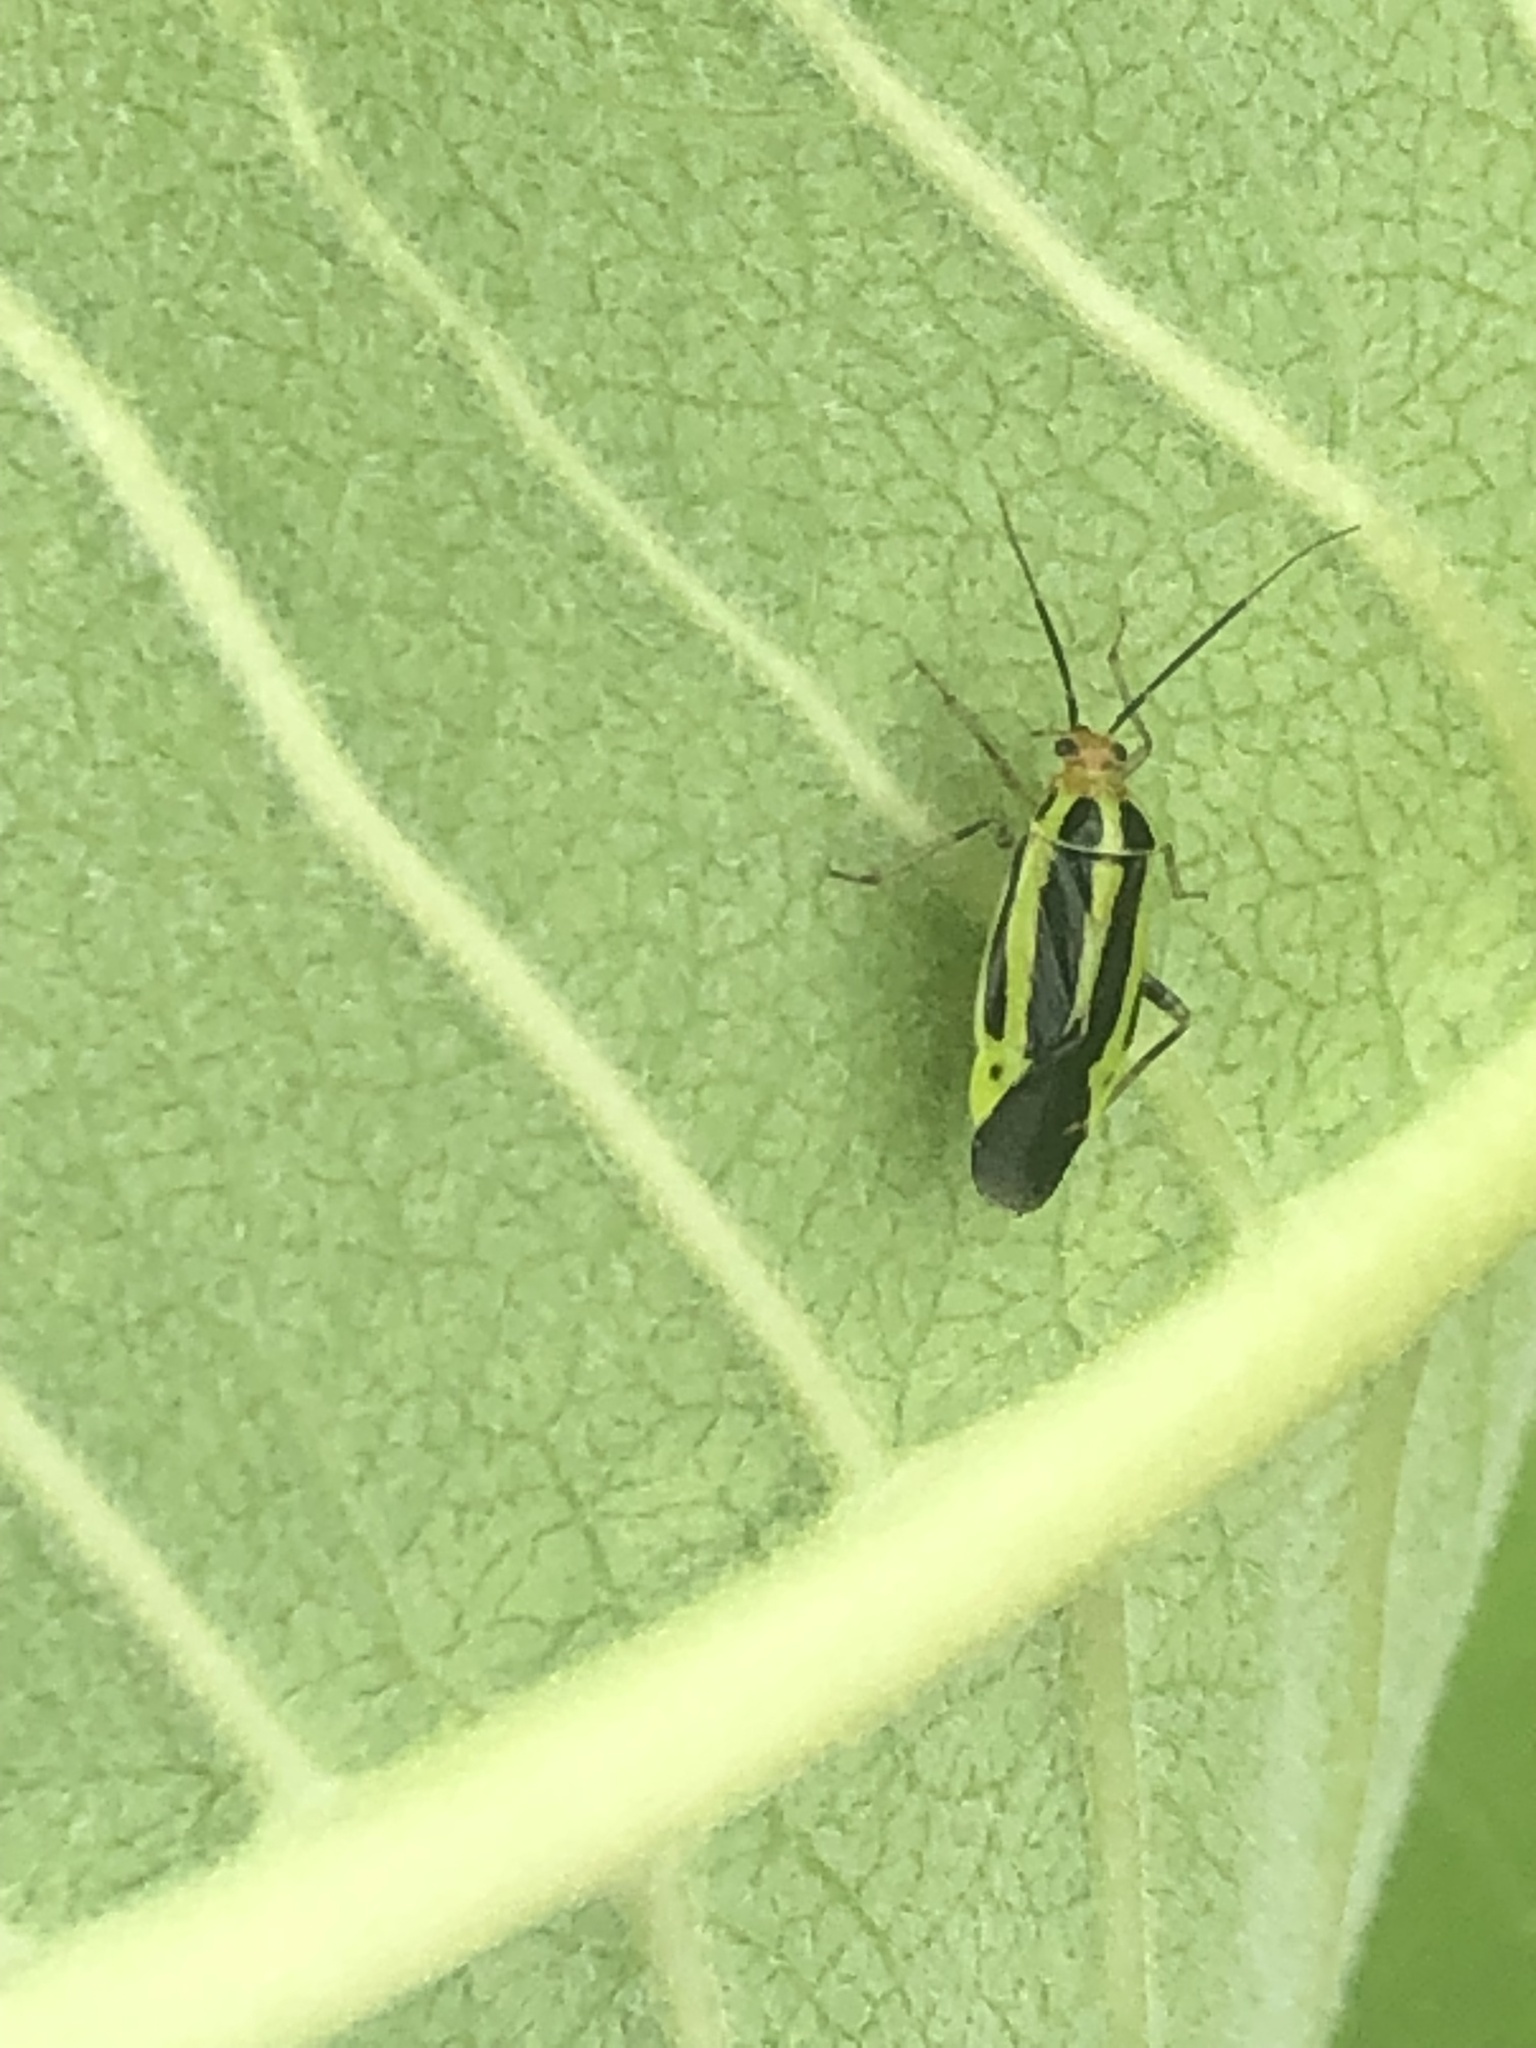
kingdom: Animalia
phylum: Arthropoda
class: Insecta
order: Hemiptera
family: Miridae
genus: Poecilocapsus
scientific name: Poecilocapsus lineatus
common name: Four-lined plant bug
